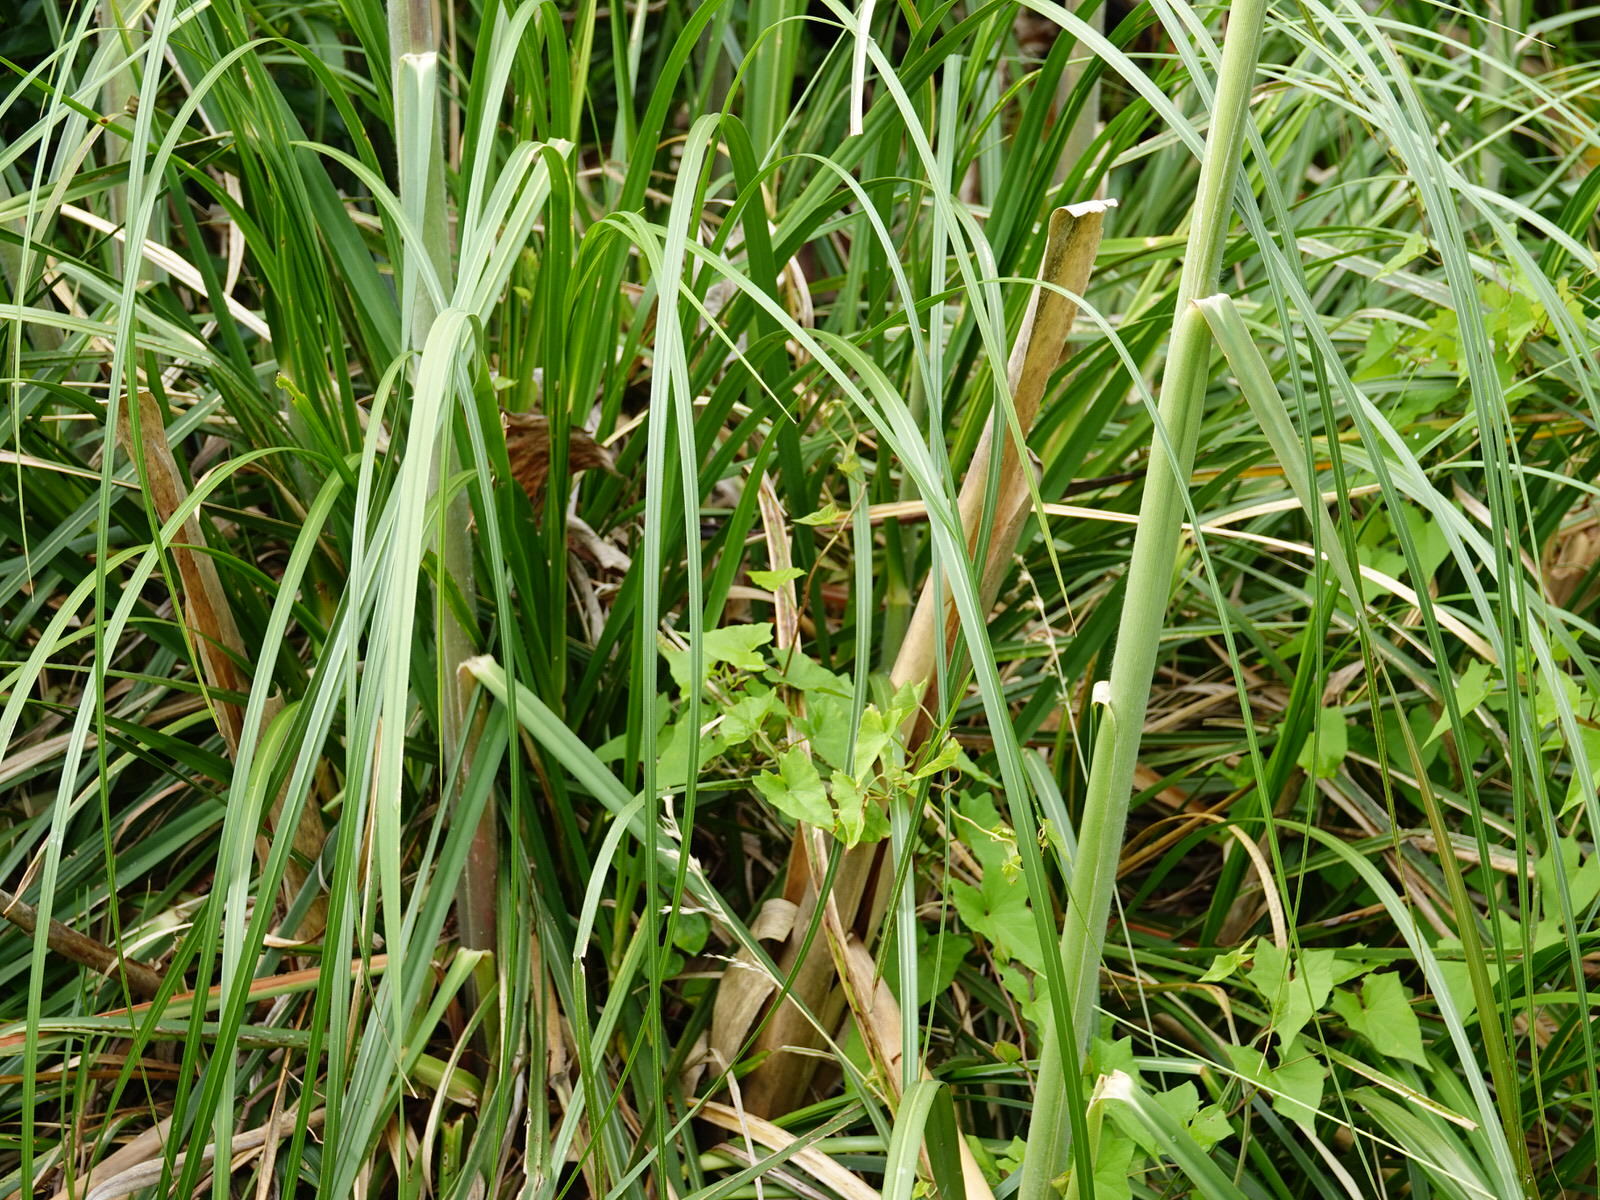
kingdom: Plantae
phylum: Tracheophyta
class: Liliopsida
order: Poales
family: Poaceae
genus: Cortaderia
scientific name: Cortaderia jubata
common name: Purple pampas grass
